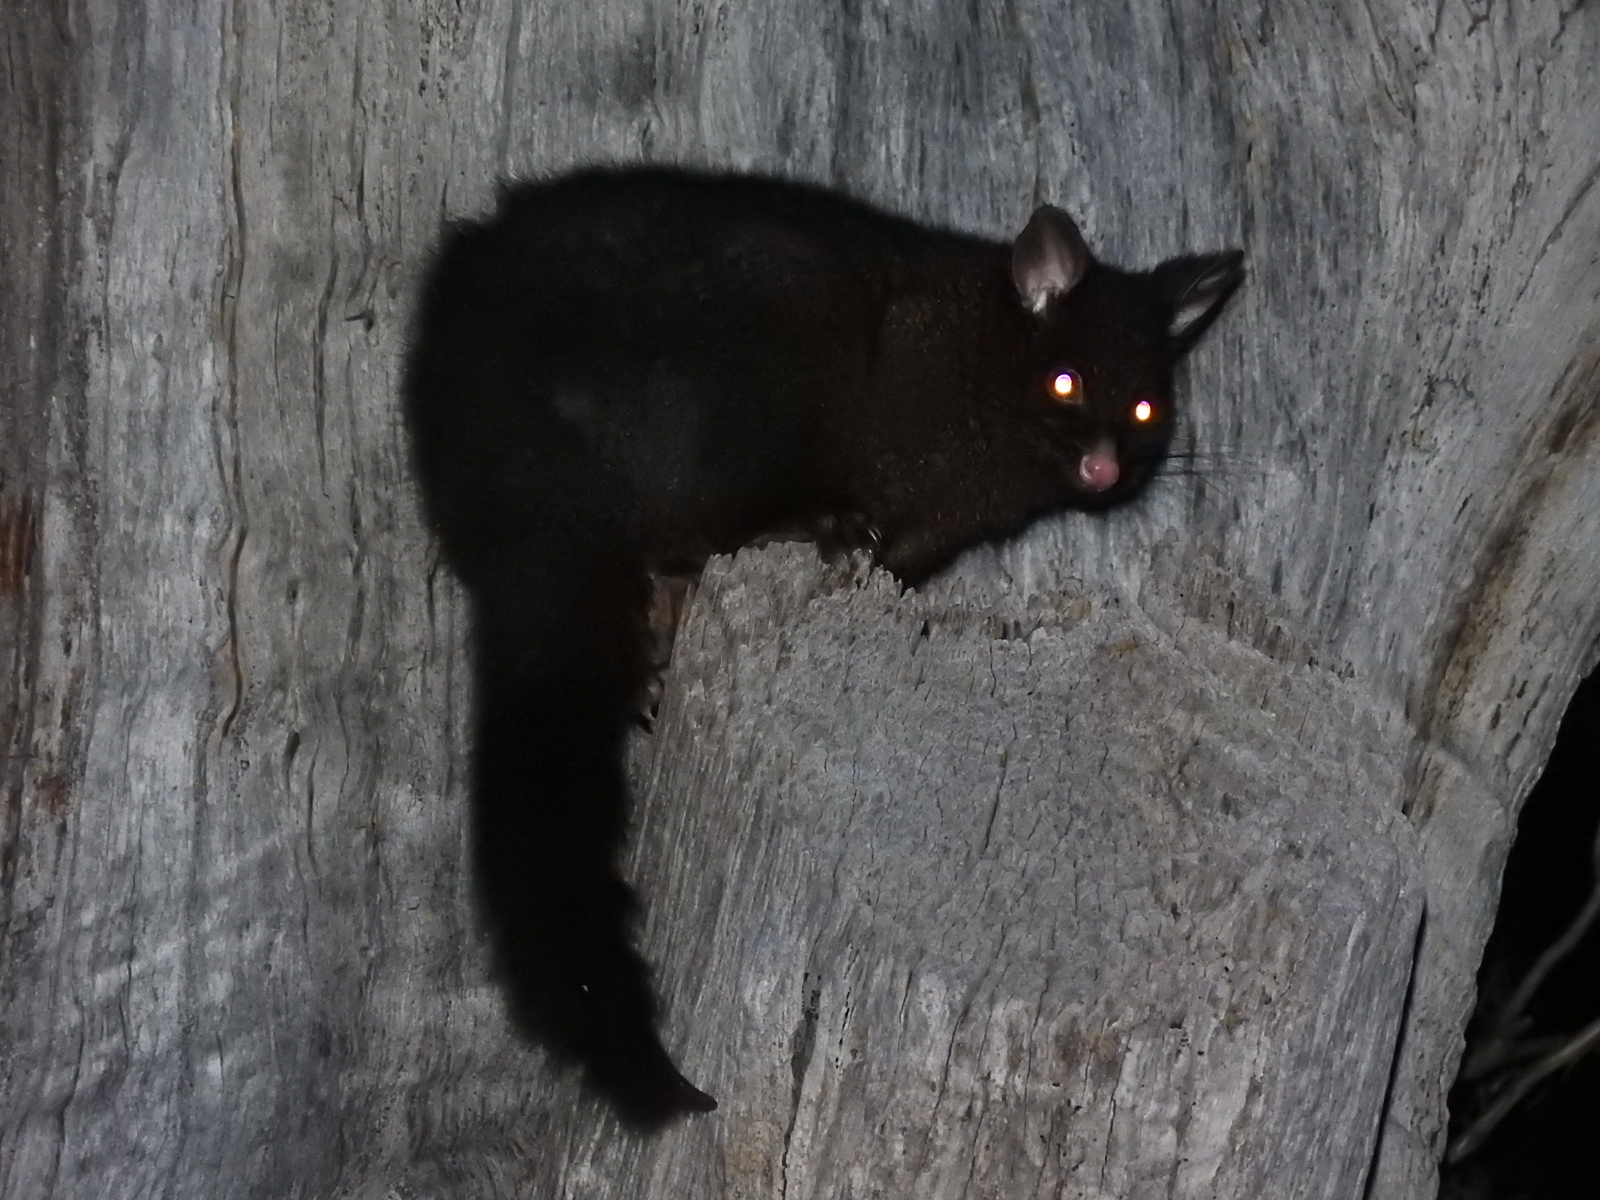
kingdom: Animalia
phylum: Chordata
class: Mammalia
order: Diprotodontia
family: Phalangeridae
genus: Trichosurus
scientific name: Trichosurus vulpecula
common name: Common brushtail
